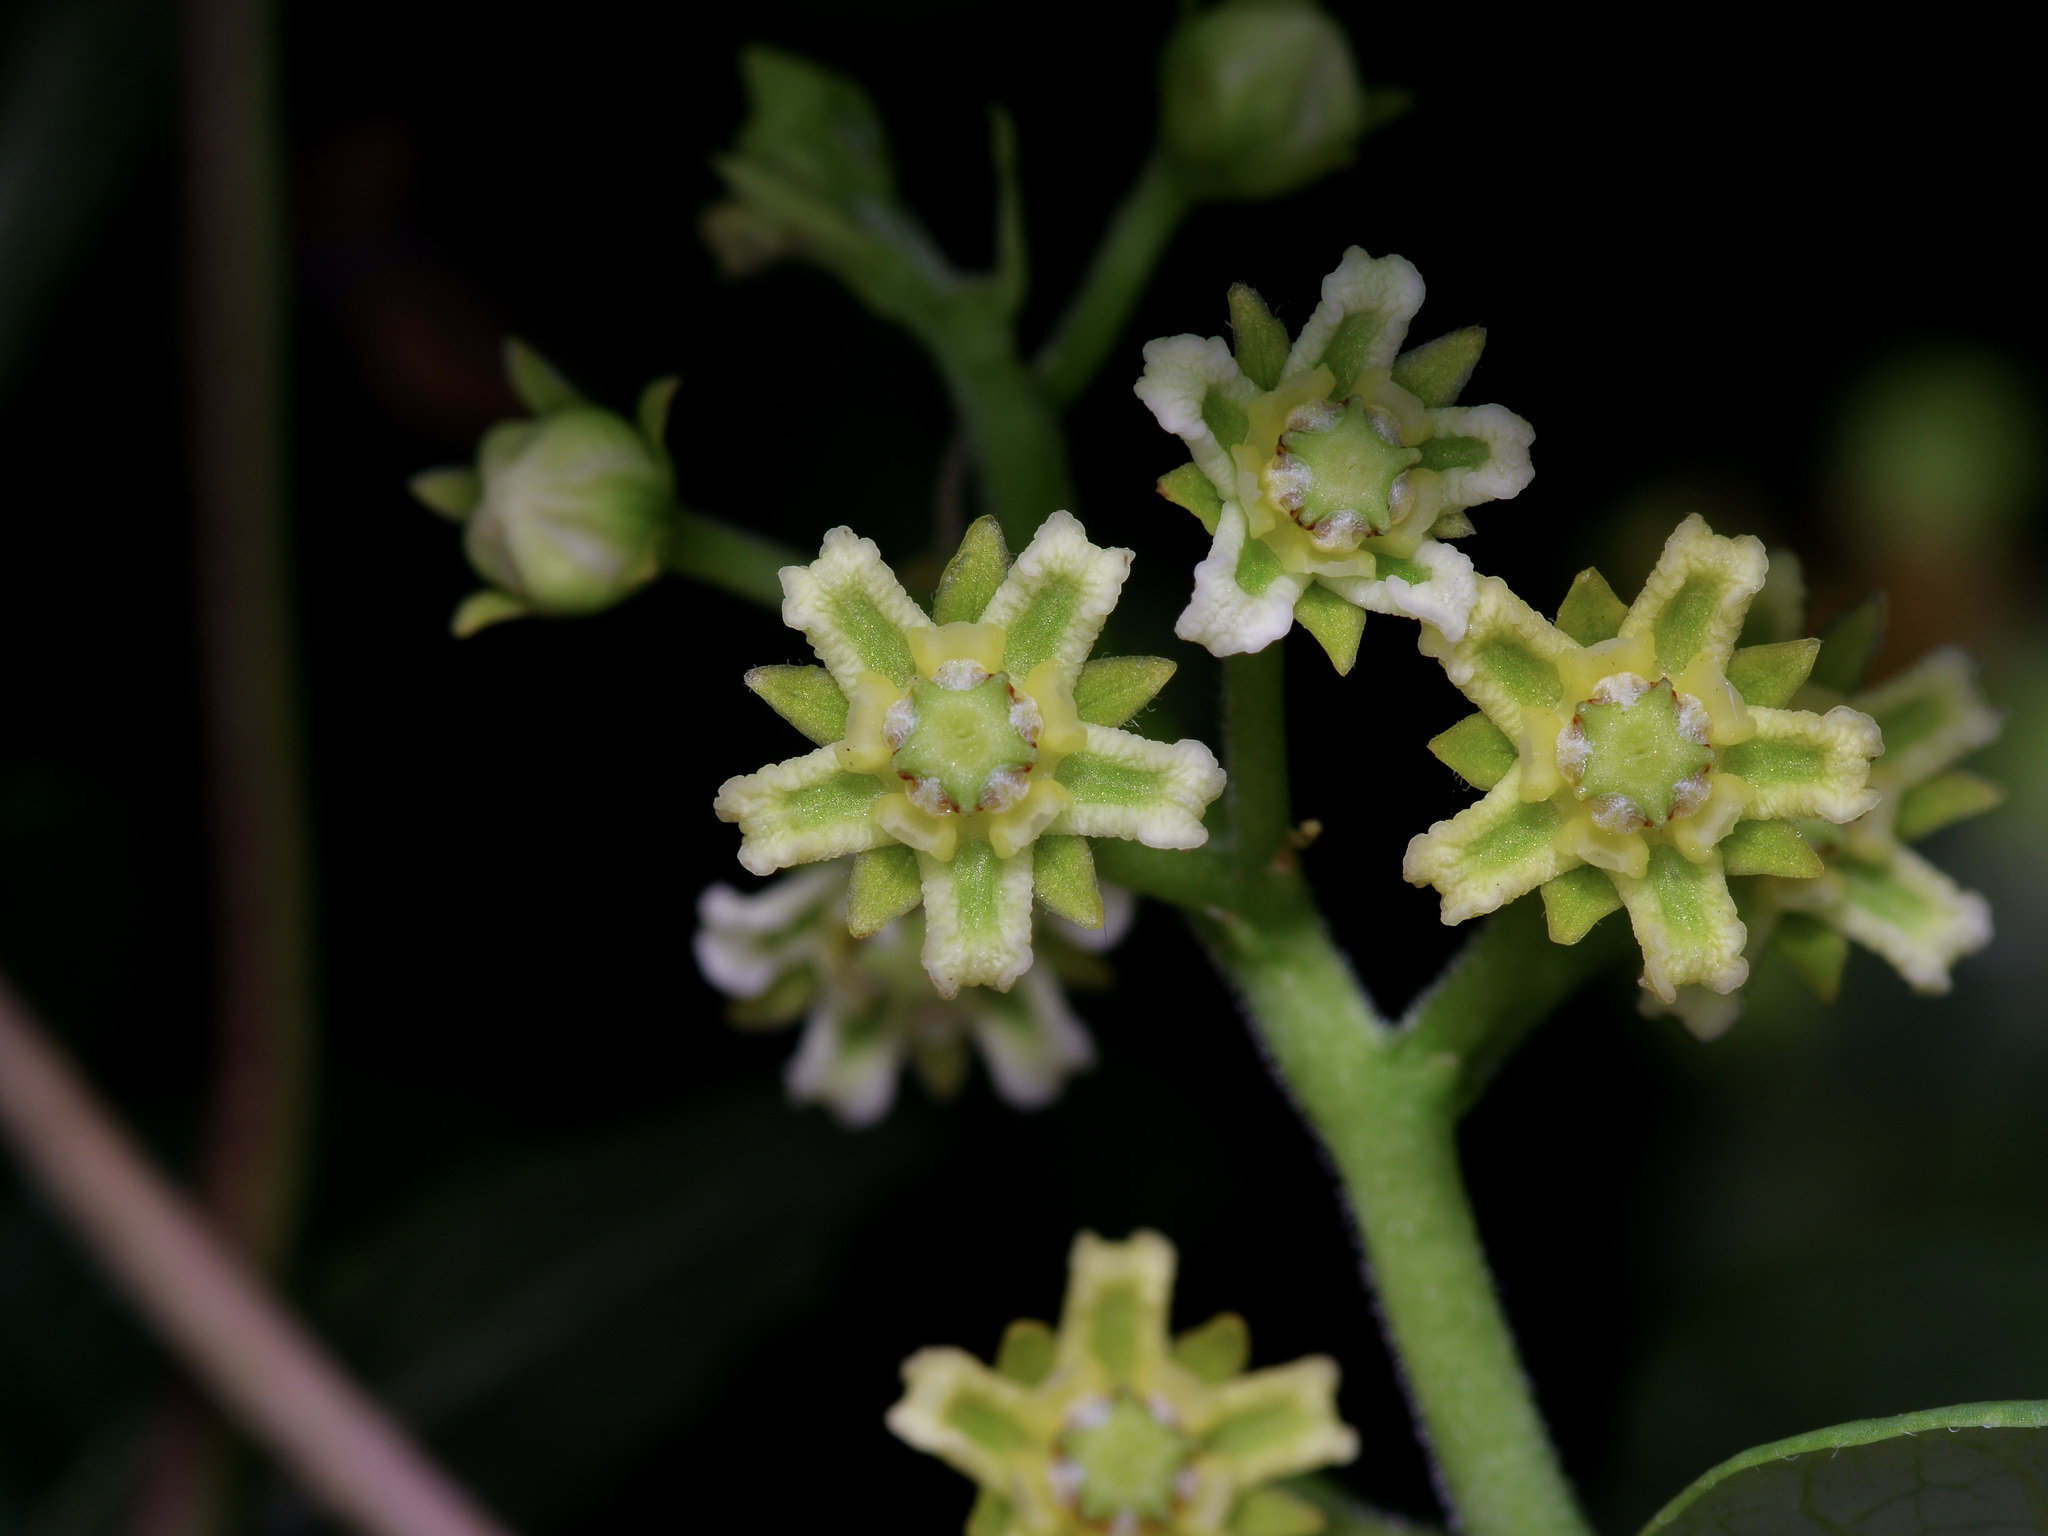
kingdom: Plantae
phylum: Tracheophyta
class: Magnoliopsida
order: Gentianales
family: Apocynaceae
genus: Cynanchum
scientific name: Cynanchum racemosum
